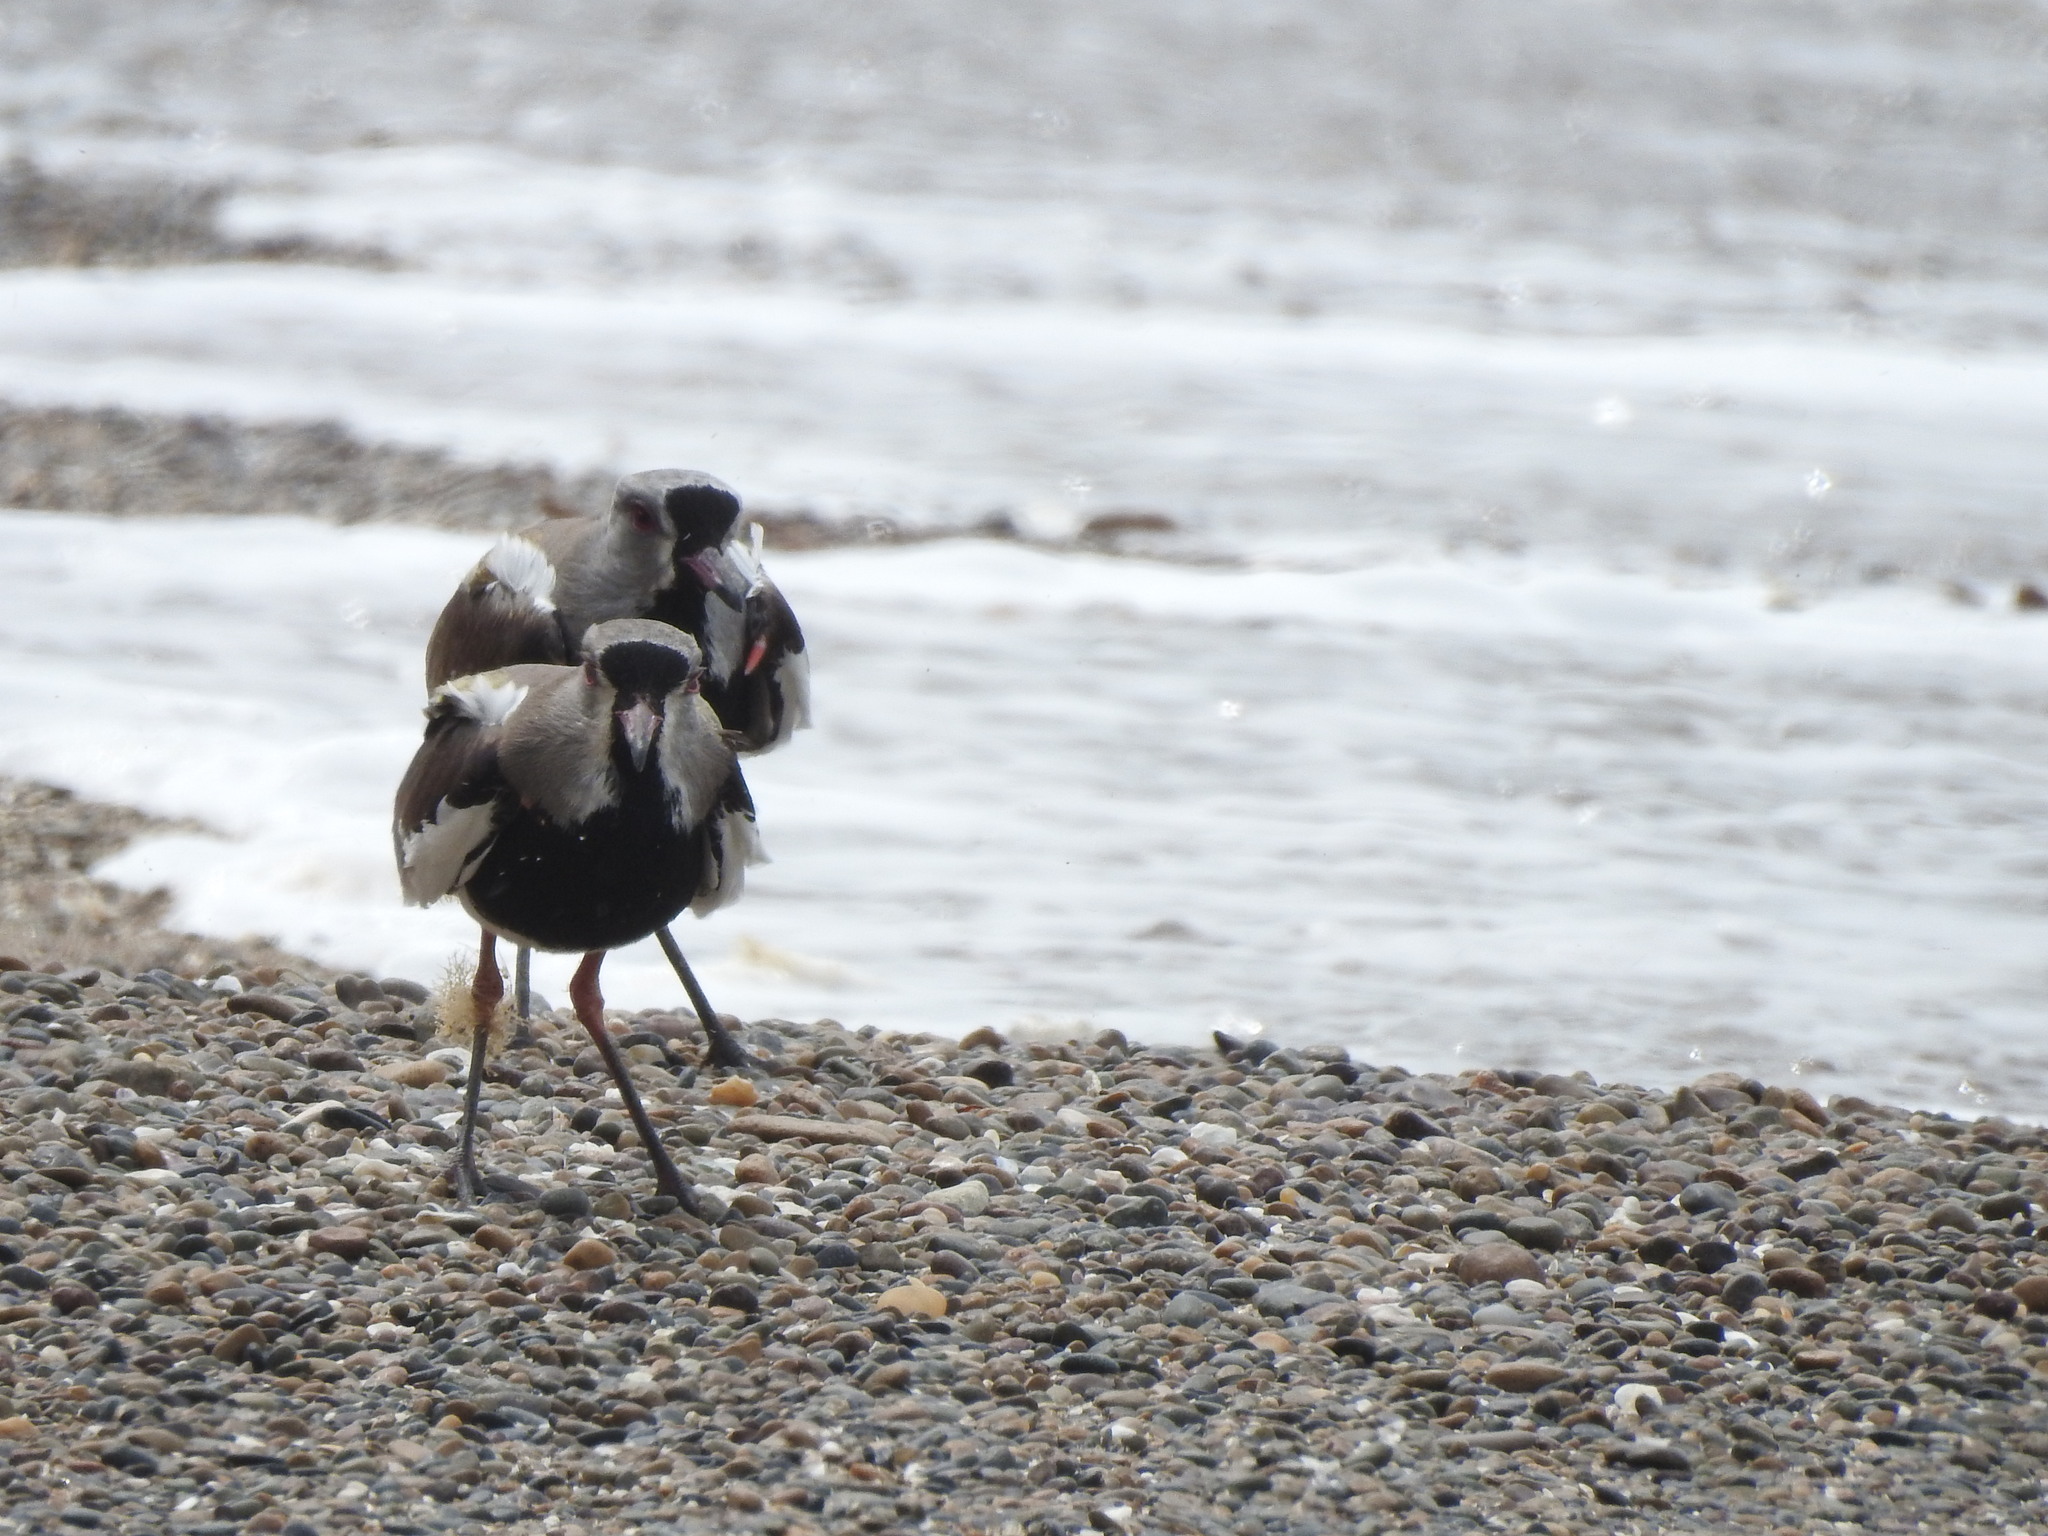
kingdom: Animalia
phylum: Chordata
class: Aves
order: Charadriiformes
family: Charadriidae
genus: Vanellus
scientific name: Vanellus chilensis
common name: Southern lapwing
